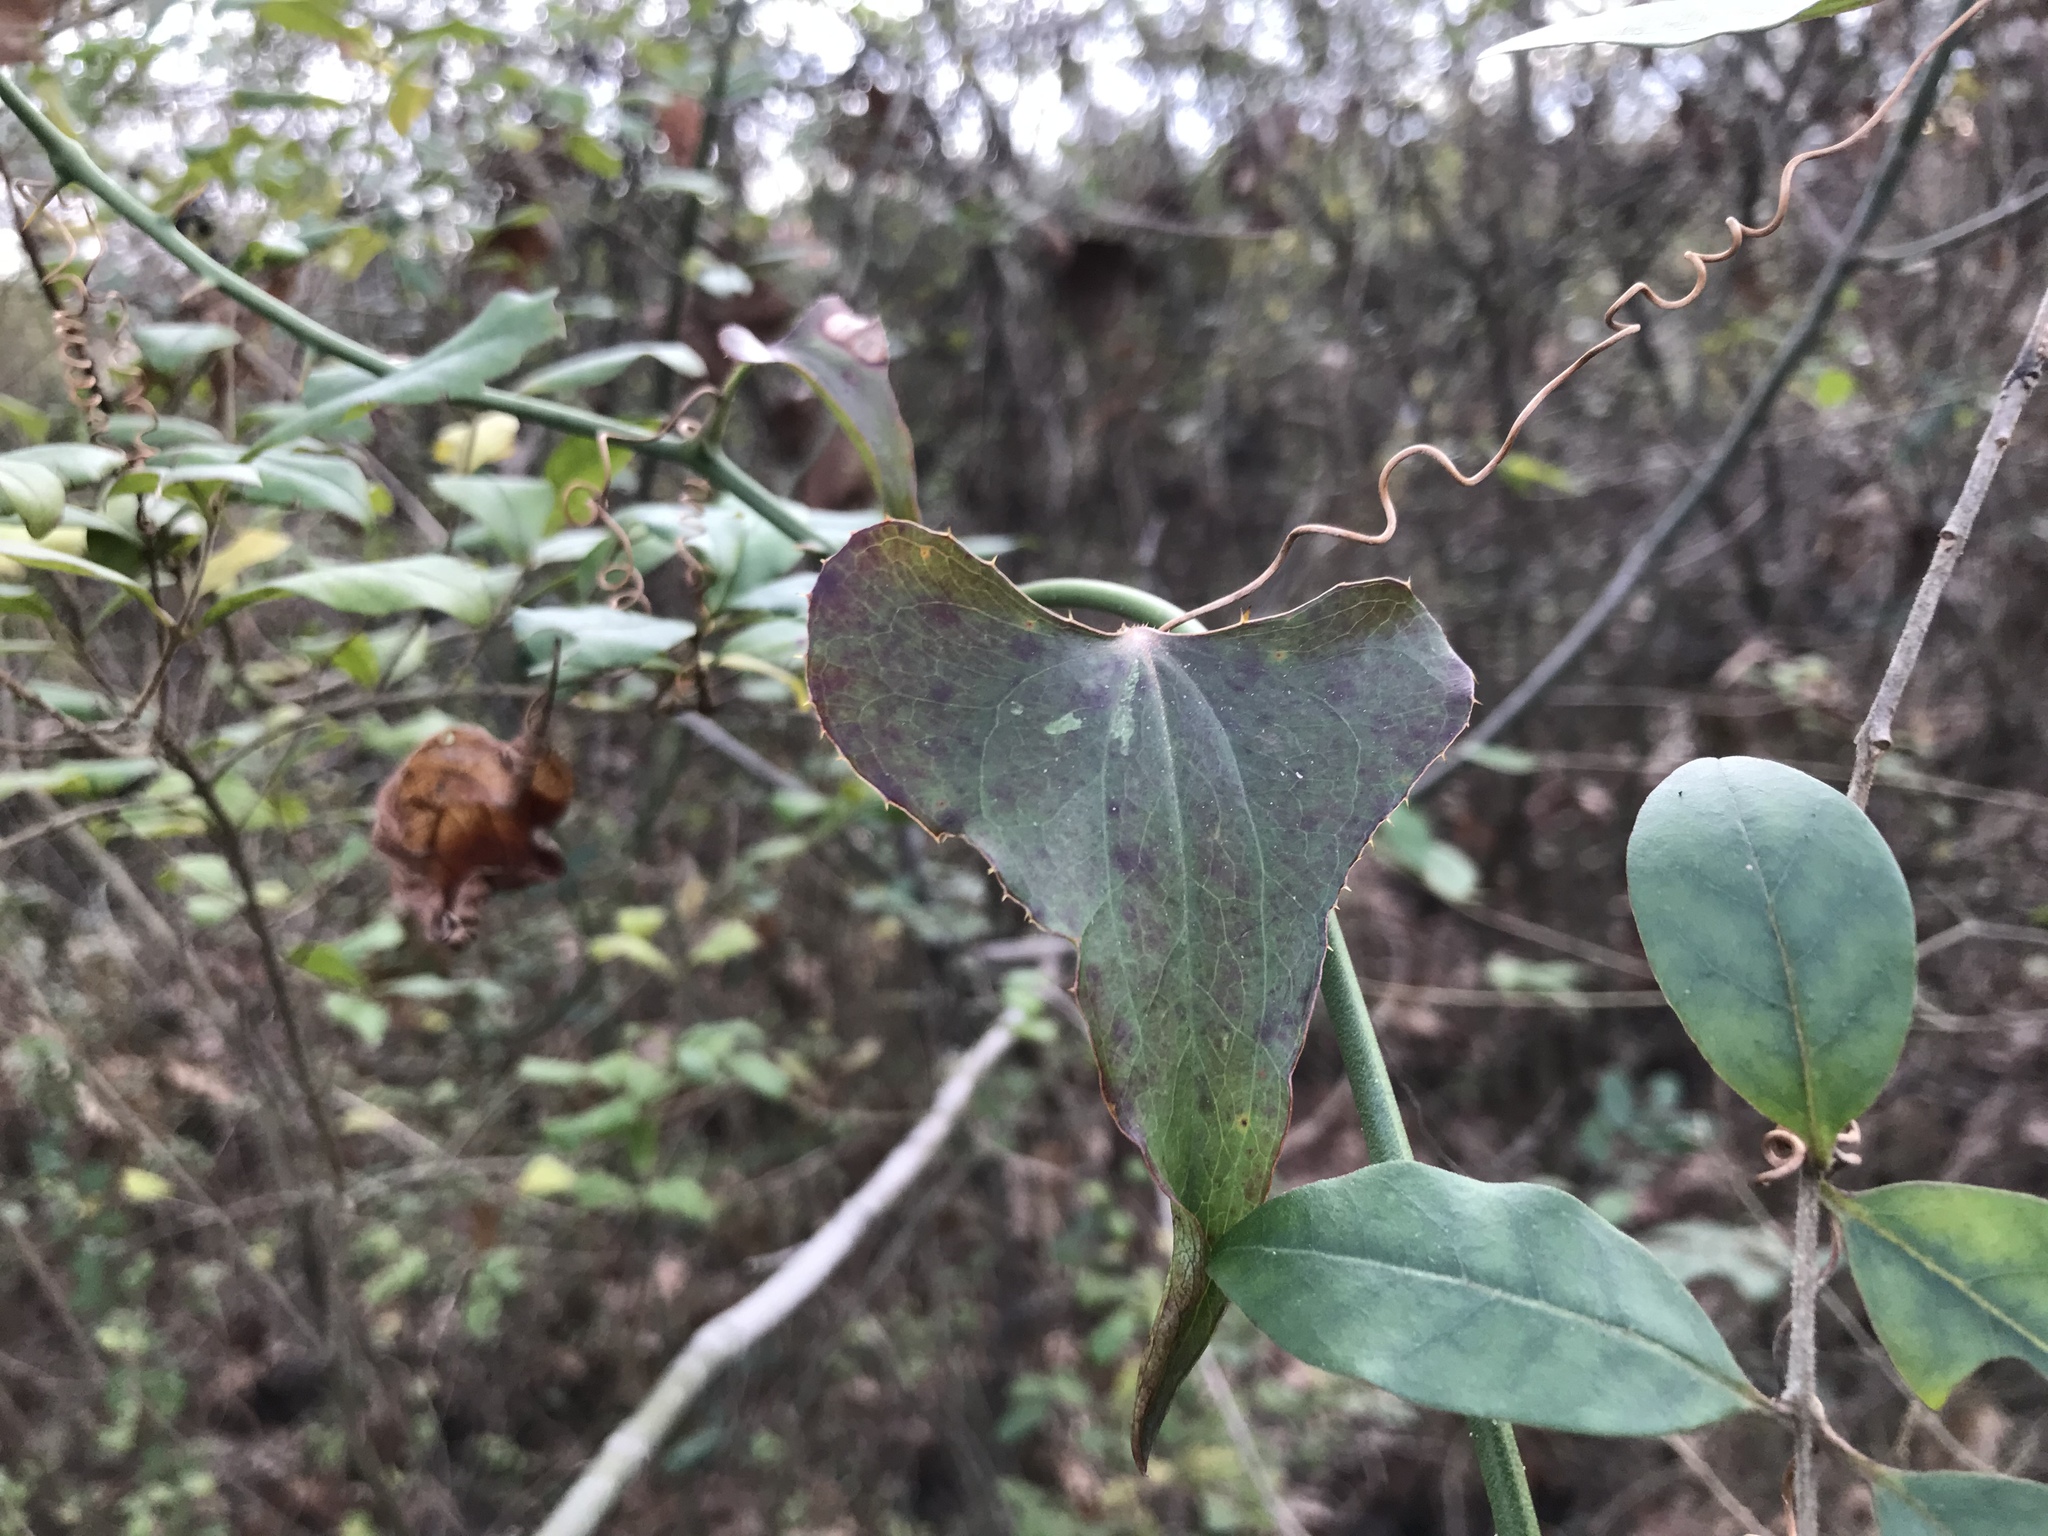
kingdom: Plantae
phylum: Tracheophyta
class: Liliopsida
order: Liliales
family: Smilacaceae
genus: Smilax
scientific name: Smilax bona-nox
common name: Catbrier
